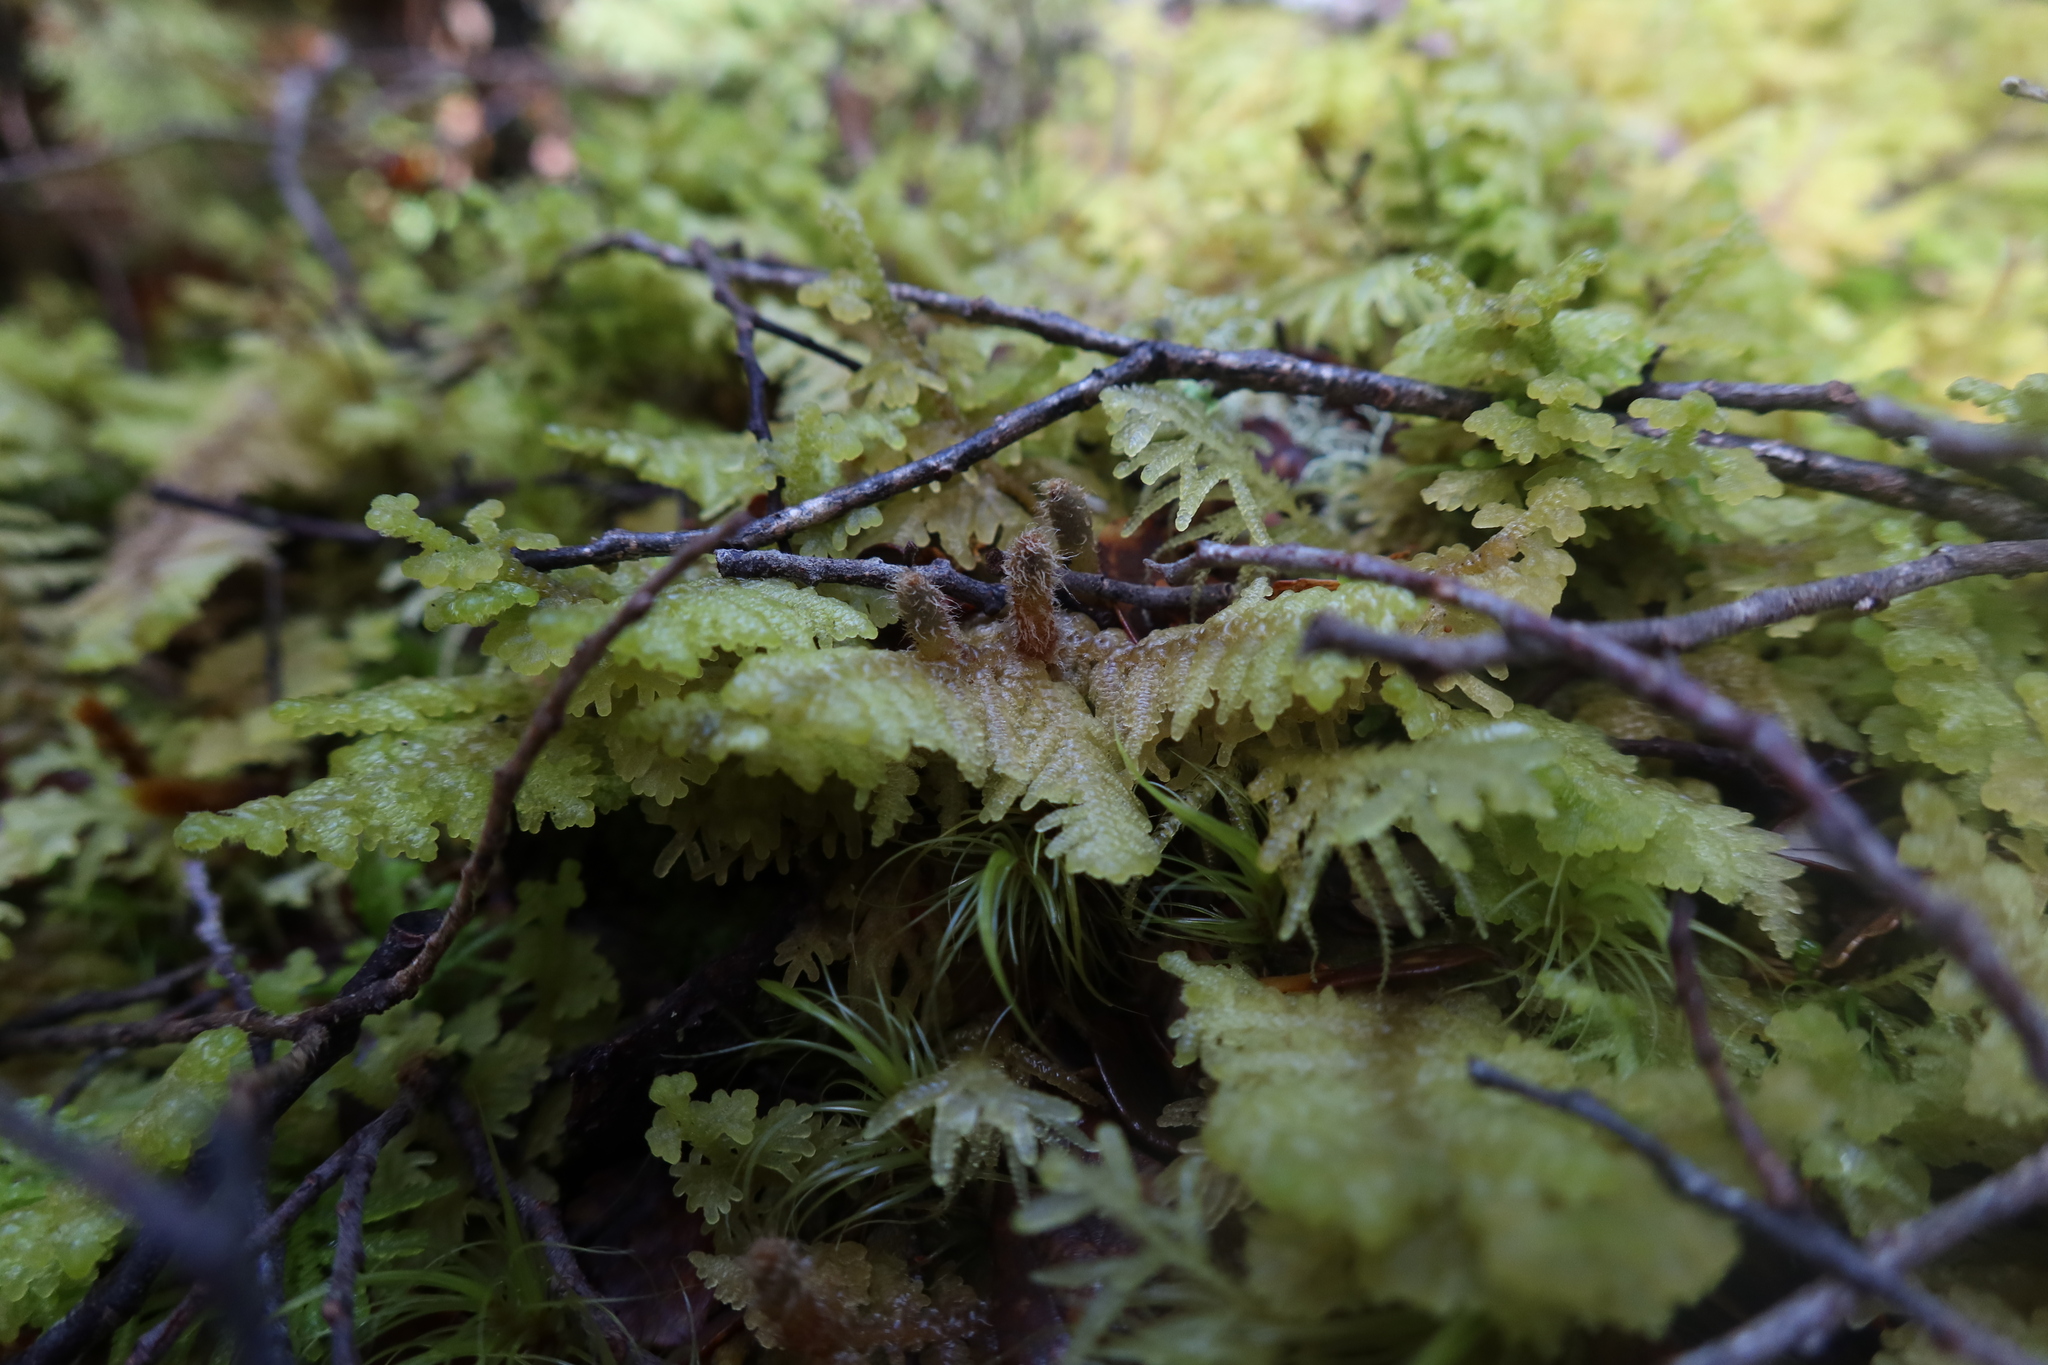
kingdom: Plantae
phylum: Marchantiophyta
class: Jungermanniopsida
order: Porellales
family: Lepidolaenaceae
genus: Lepidogyna
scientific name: Lepidogyna hodgsoniae
